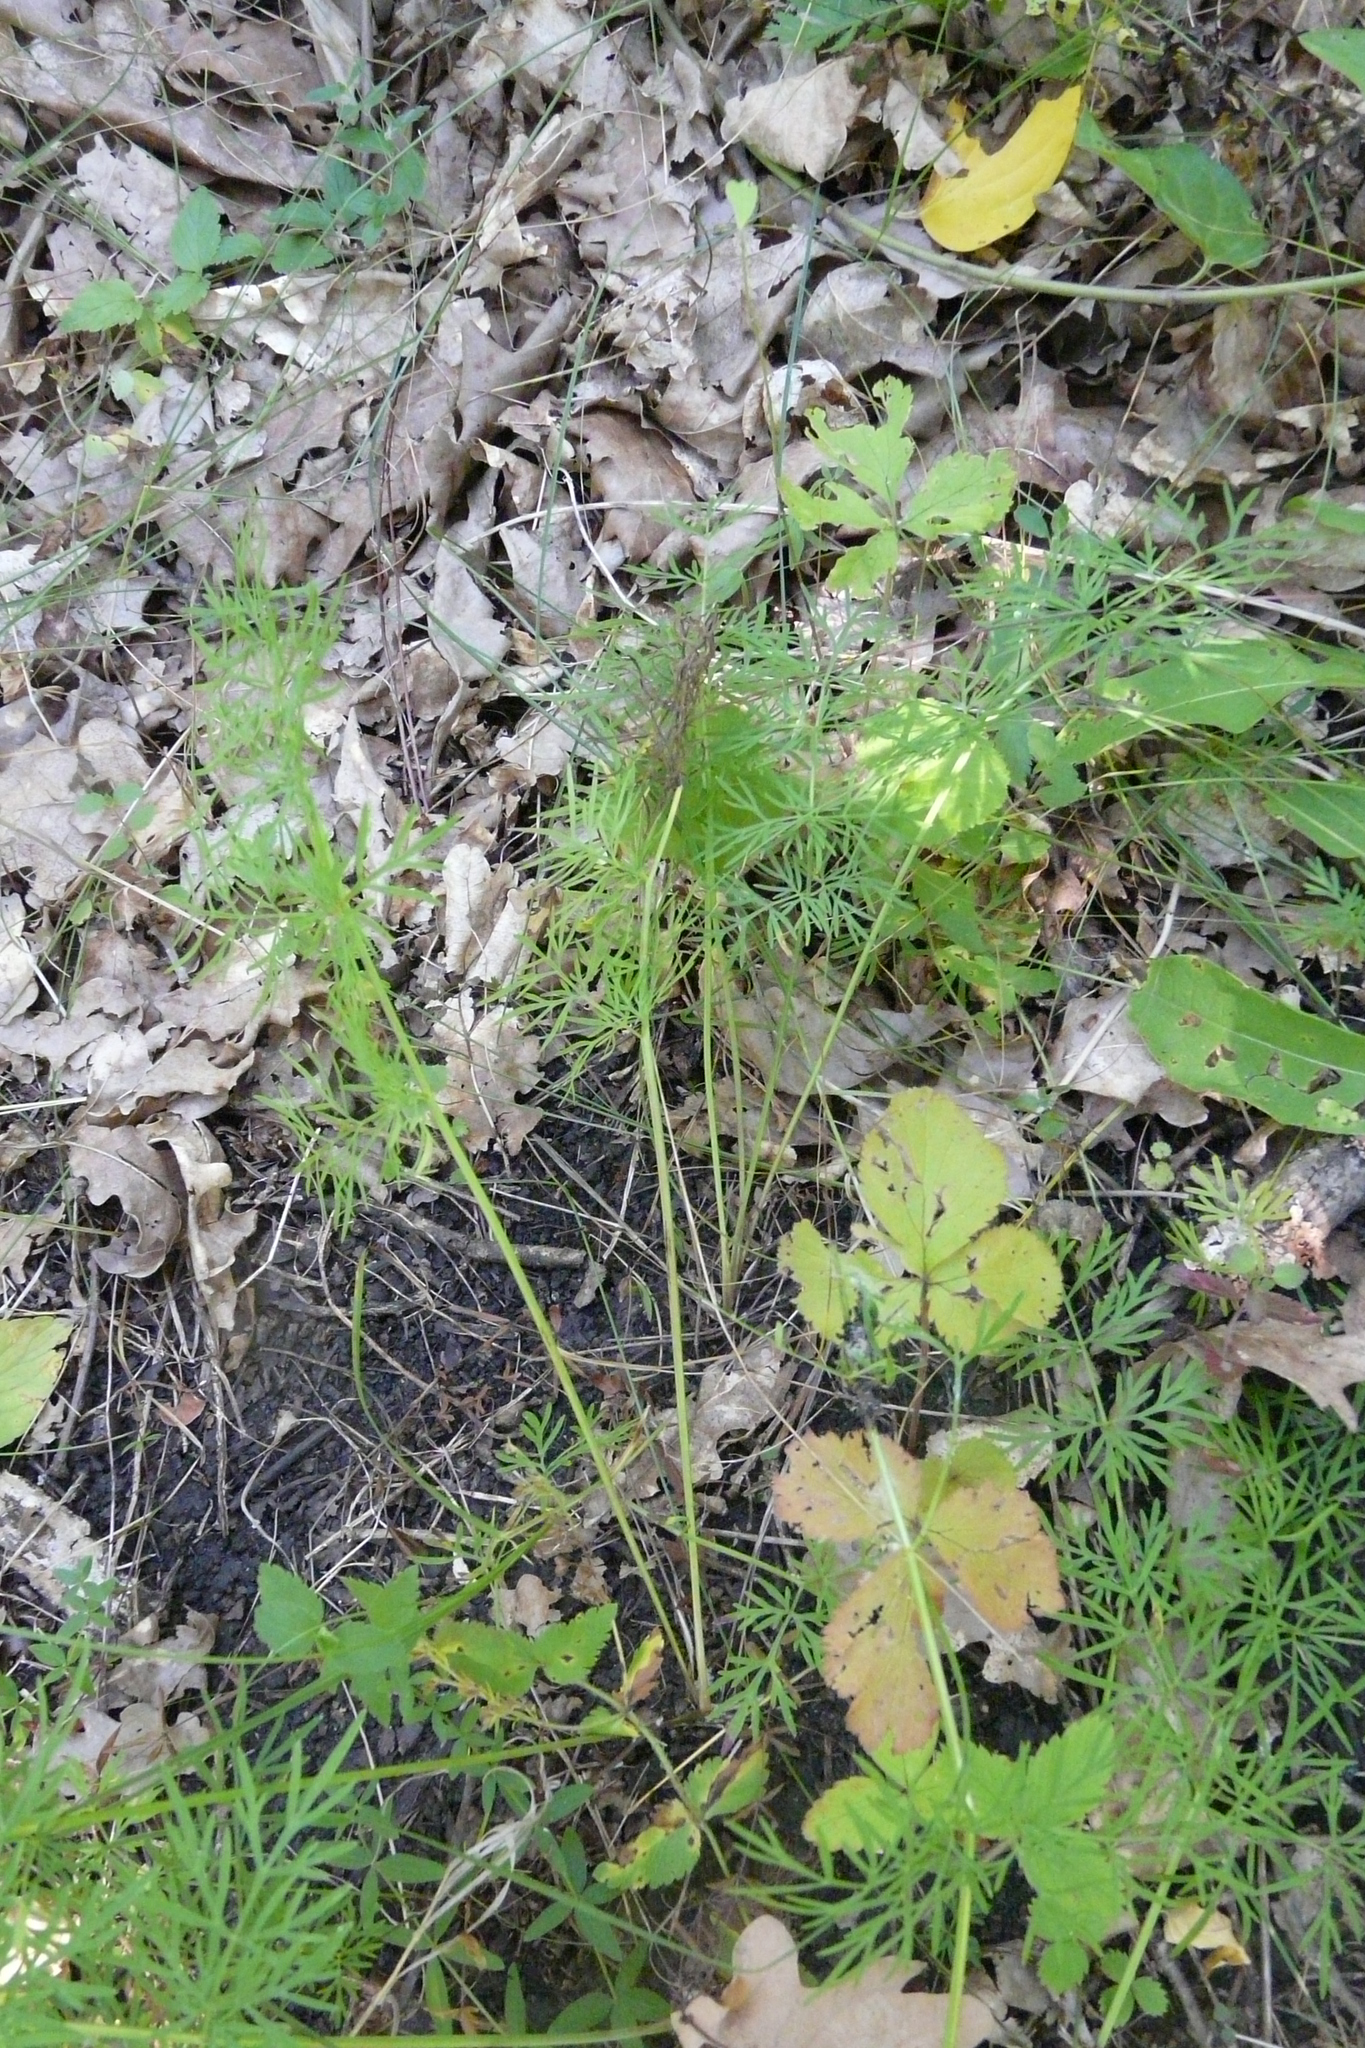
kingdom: Plantae
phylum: Tracheophyta
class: Magnoliopsida
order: Apiales
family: Apiaceae
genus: Carum
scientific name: Carum carvi
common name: Caraway
